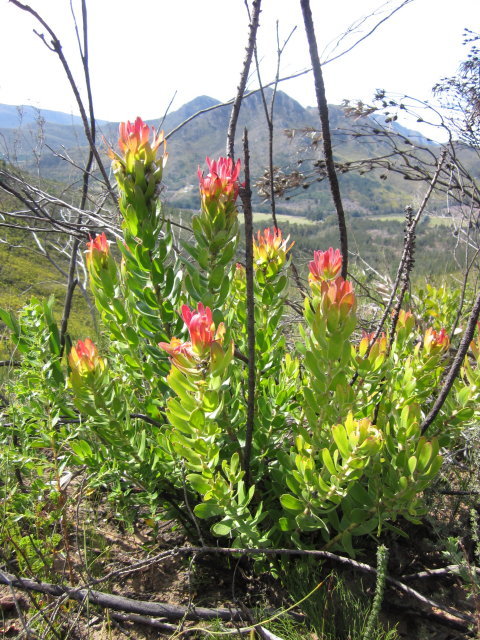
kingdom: Plantae
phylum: Tracheophyta
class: Magnoliopsida
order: Proteales
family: Proteaceae
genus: Mimetes
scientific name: Mimetes cucullatus
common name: Common pagoda
